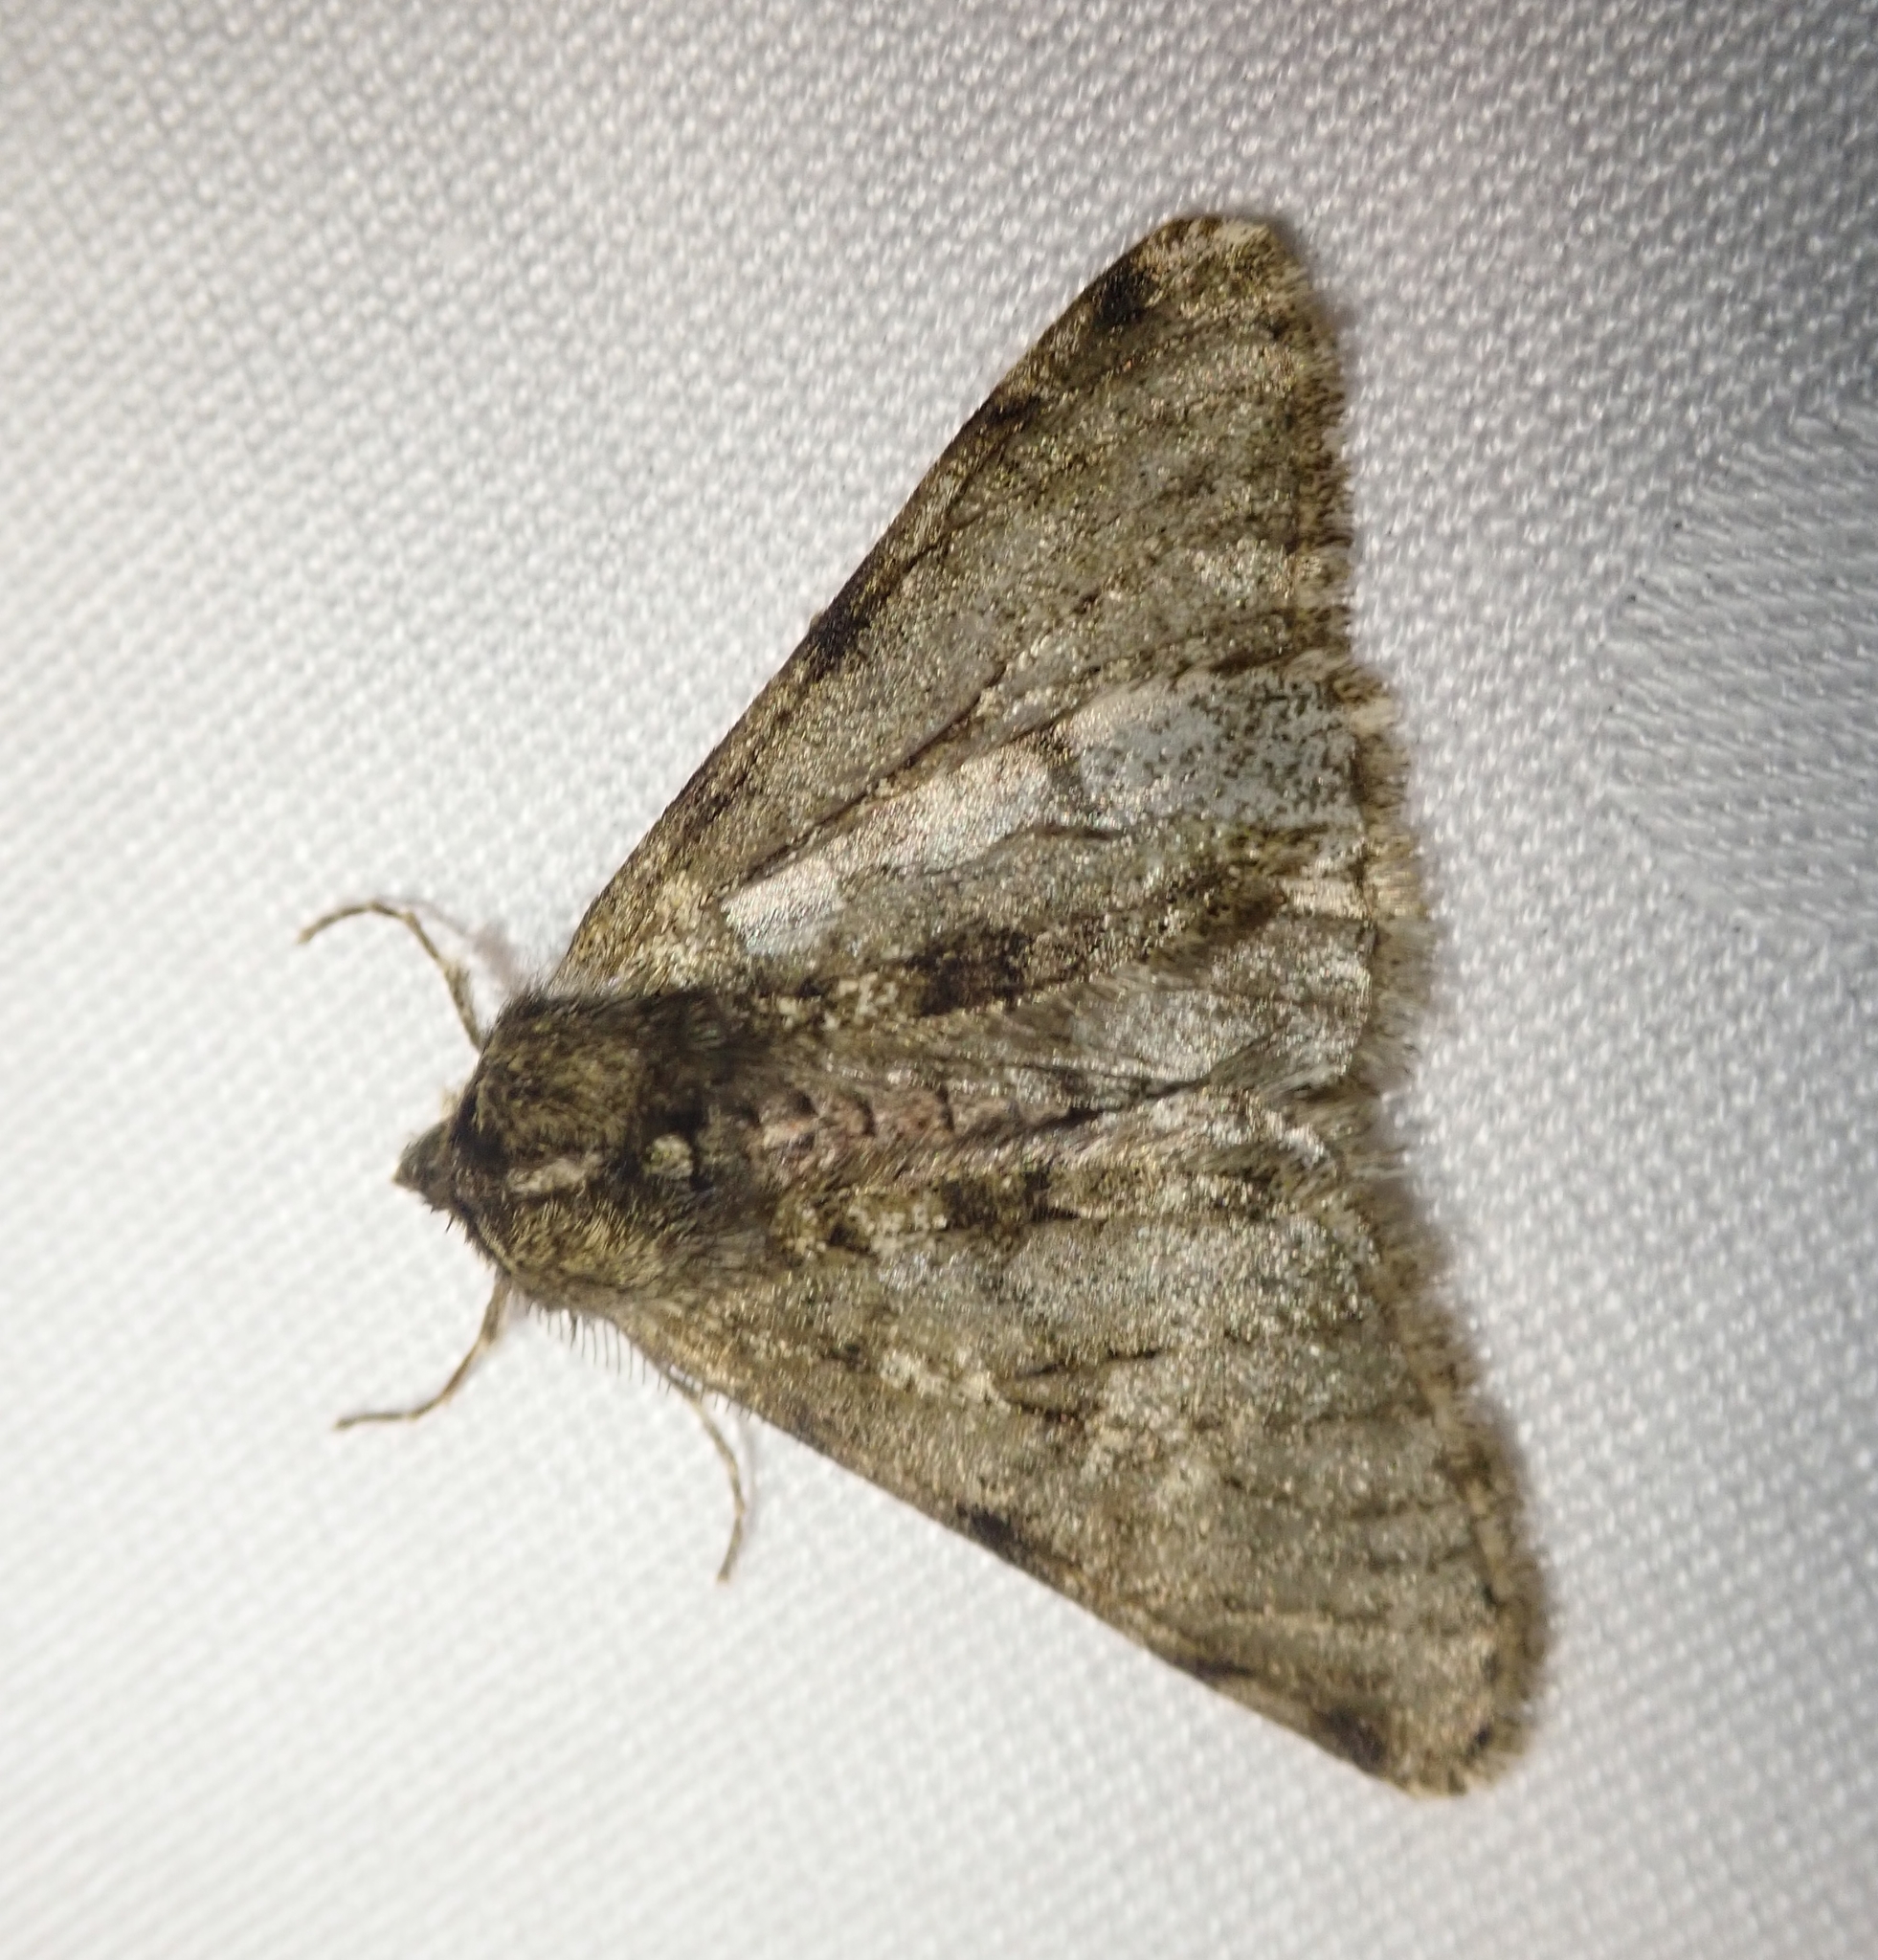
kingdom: Animalia
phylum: Arthropoda
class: Insecta
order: Lepidoptera
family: Geometridae
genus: Phigalia
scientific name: Phigalia pilosaria
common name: Pale brindled beauty
